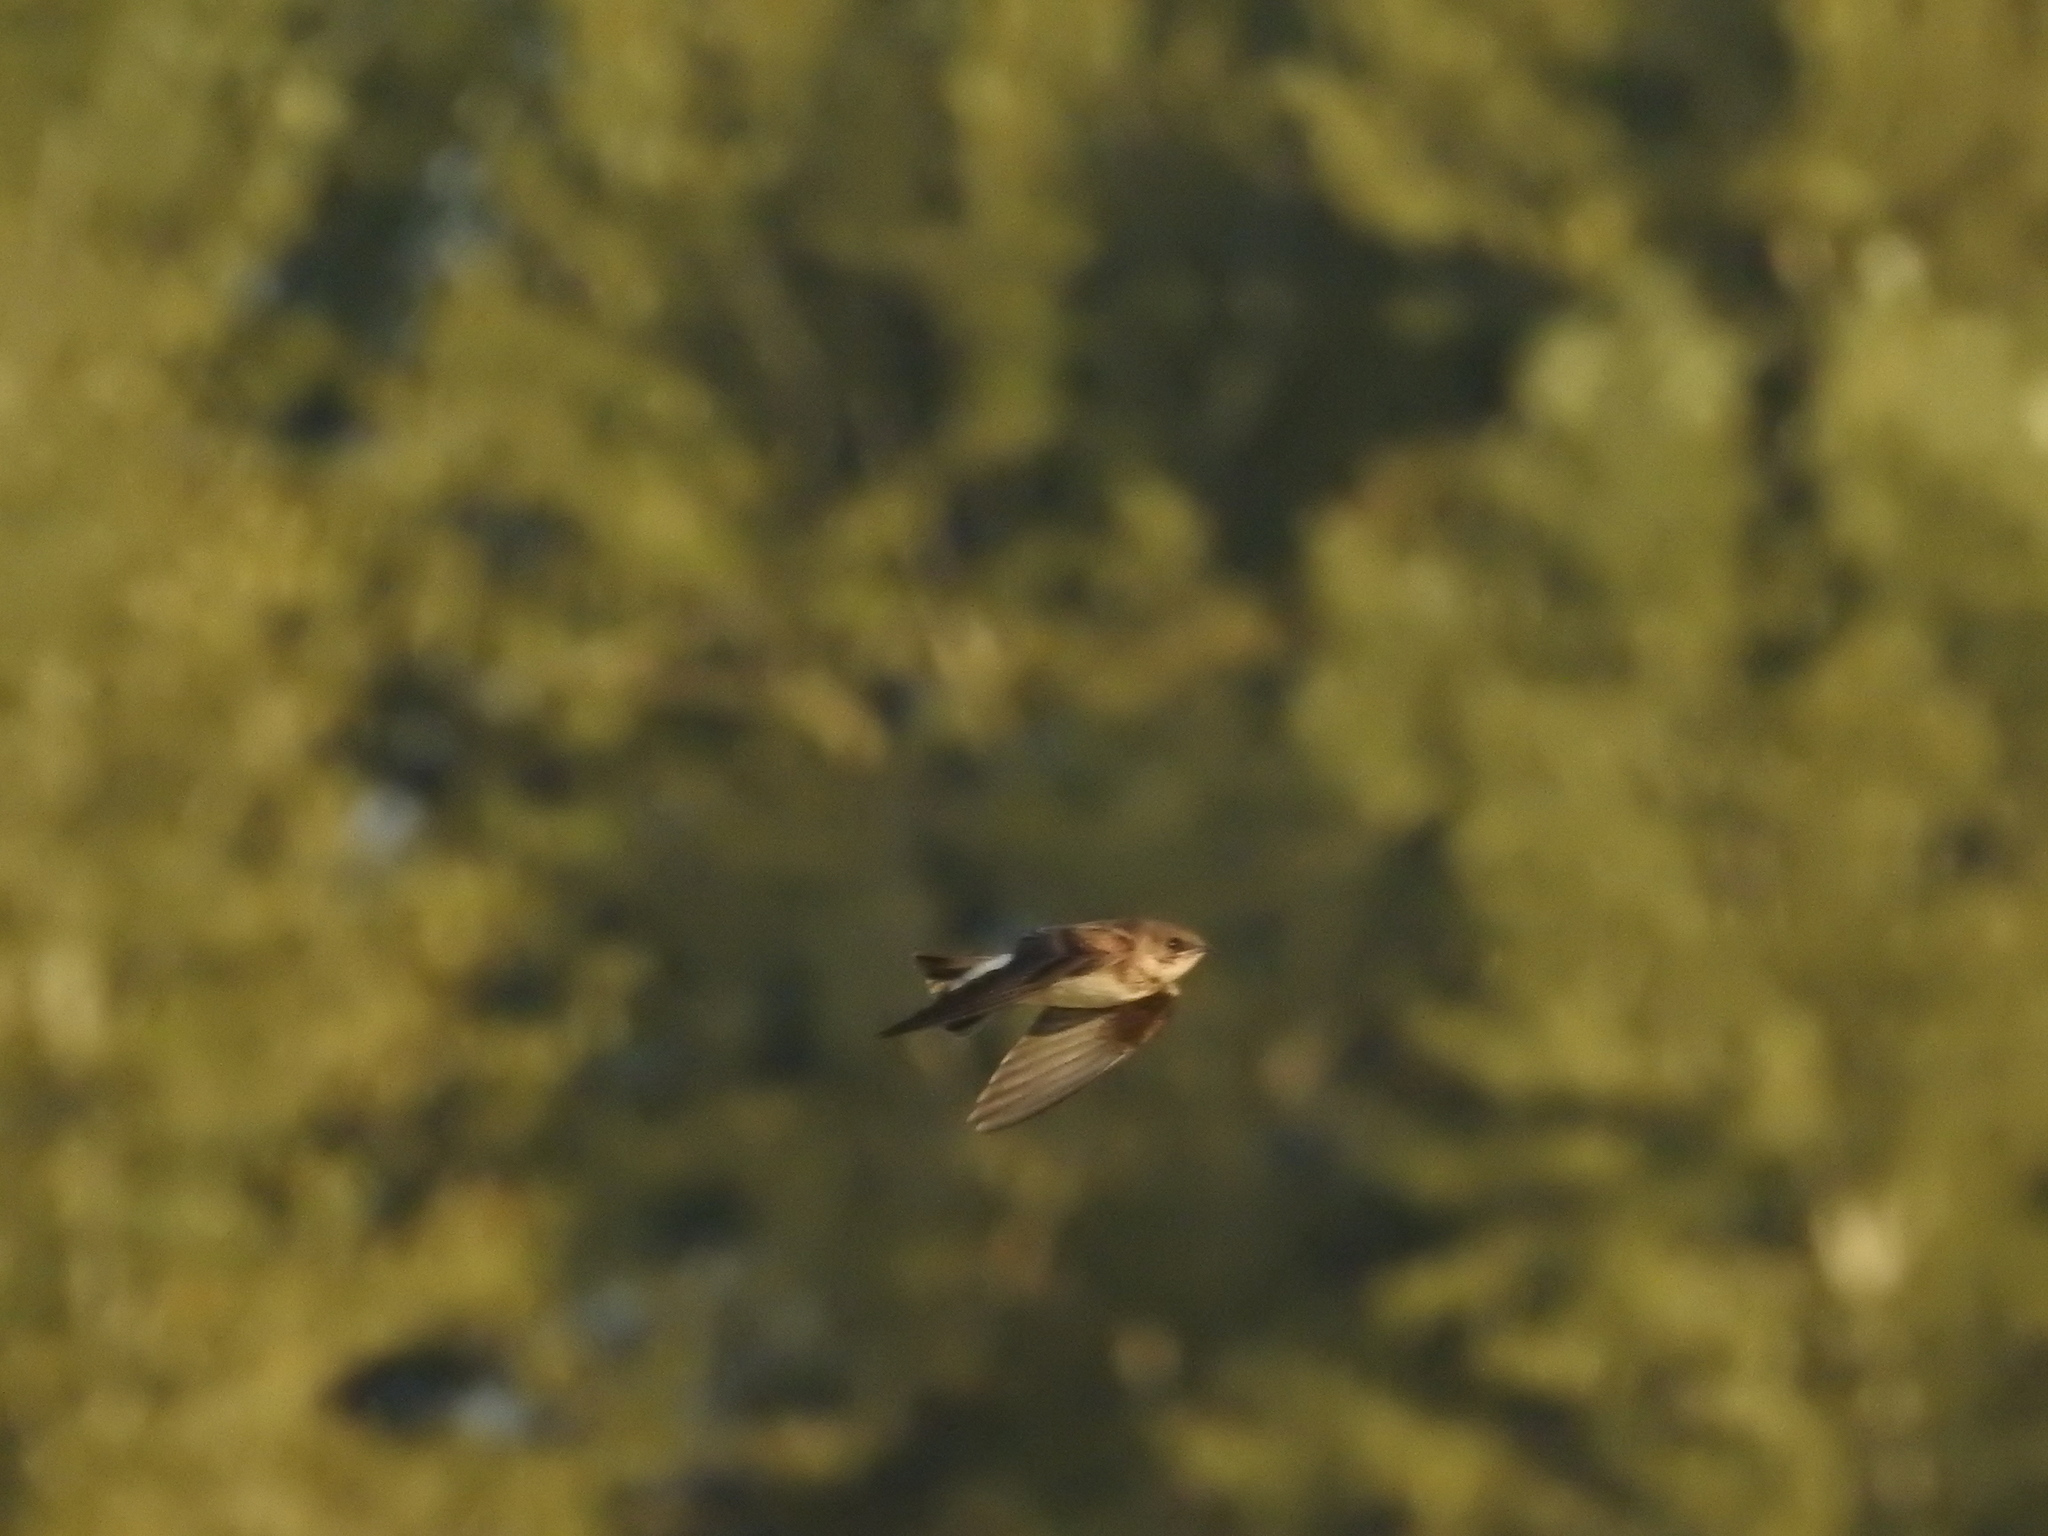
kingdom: Animalia
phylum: Chordata
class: Aves
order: Passeriformes
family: Hirundinidae
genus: Riparia
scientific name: Riparia riparia
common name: Sand martin
